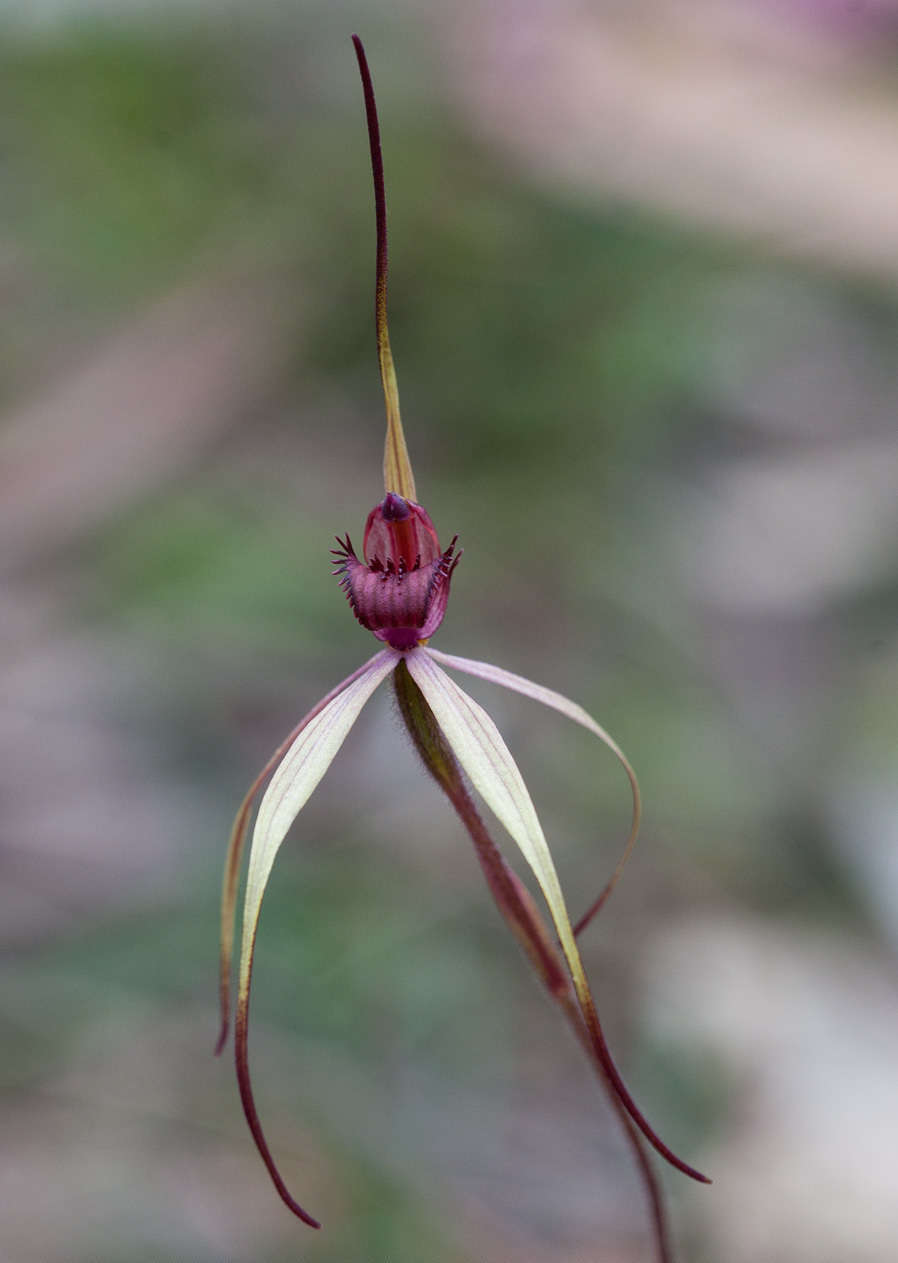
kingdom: Plantae
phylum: Tracheophyta
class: Liliopsida
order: Asparagales
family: Orchidaceae
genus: Caladenia
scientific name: Caladenia oenochila
